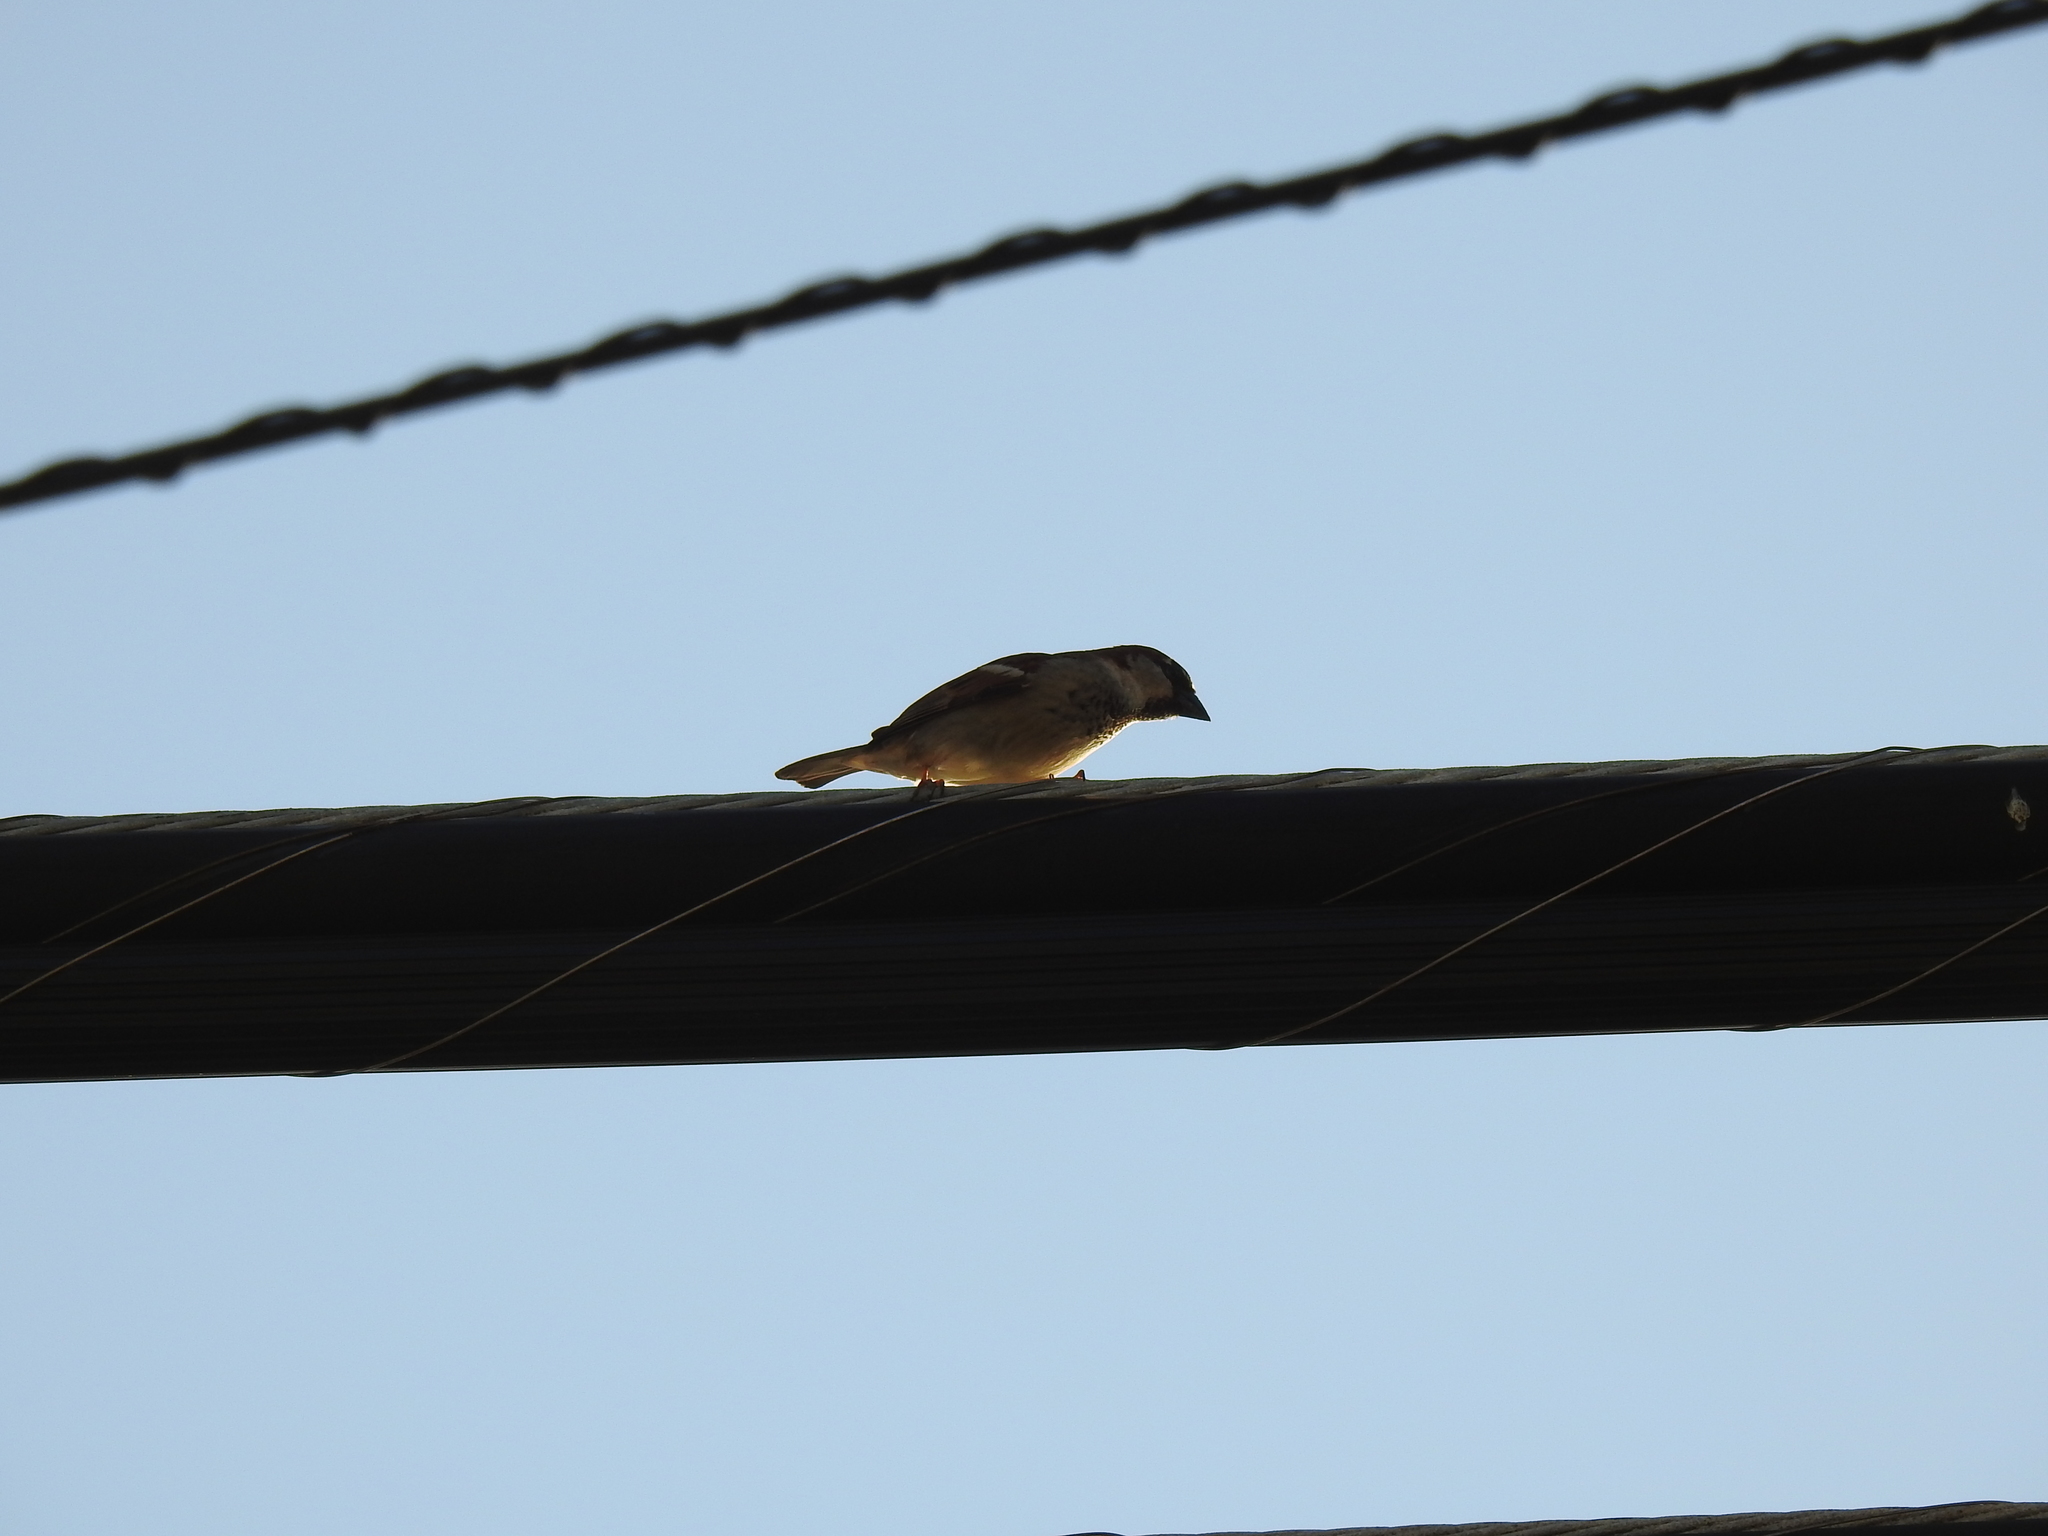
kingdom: Animalia
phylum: Chordata
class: Aves
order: Passeriformes
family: Passeridae
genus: Passer
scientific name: Passer domesticus
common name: House sparrow
